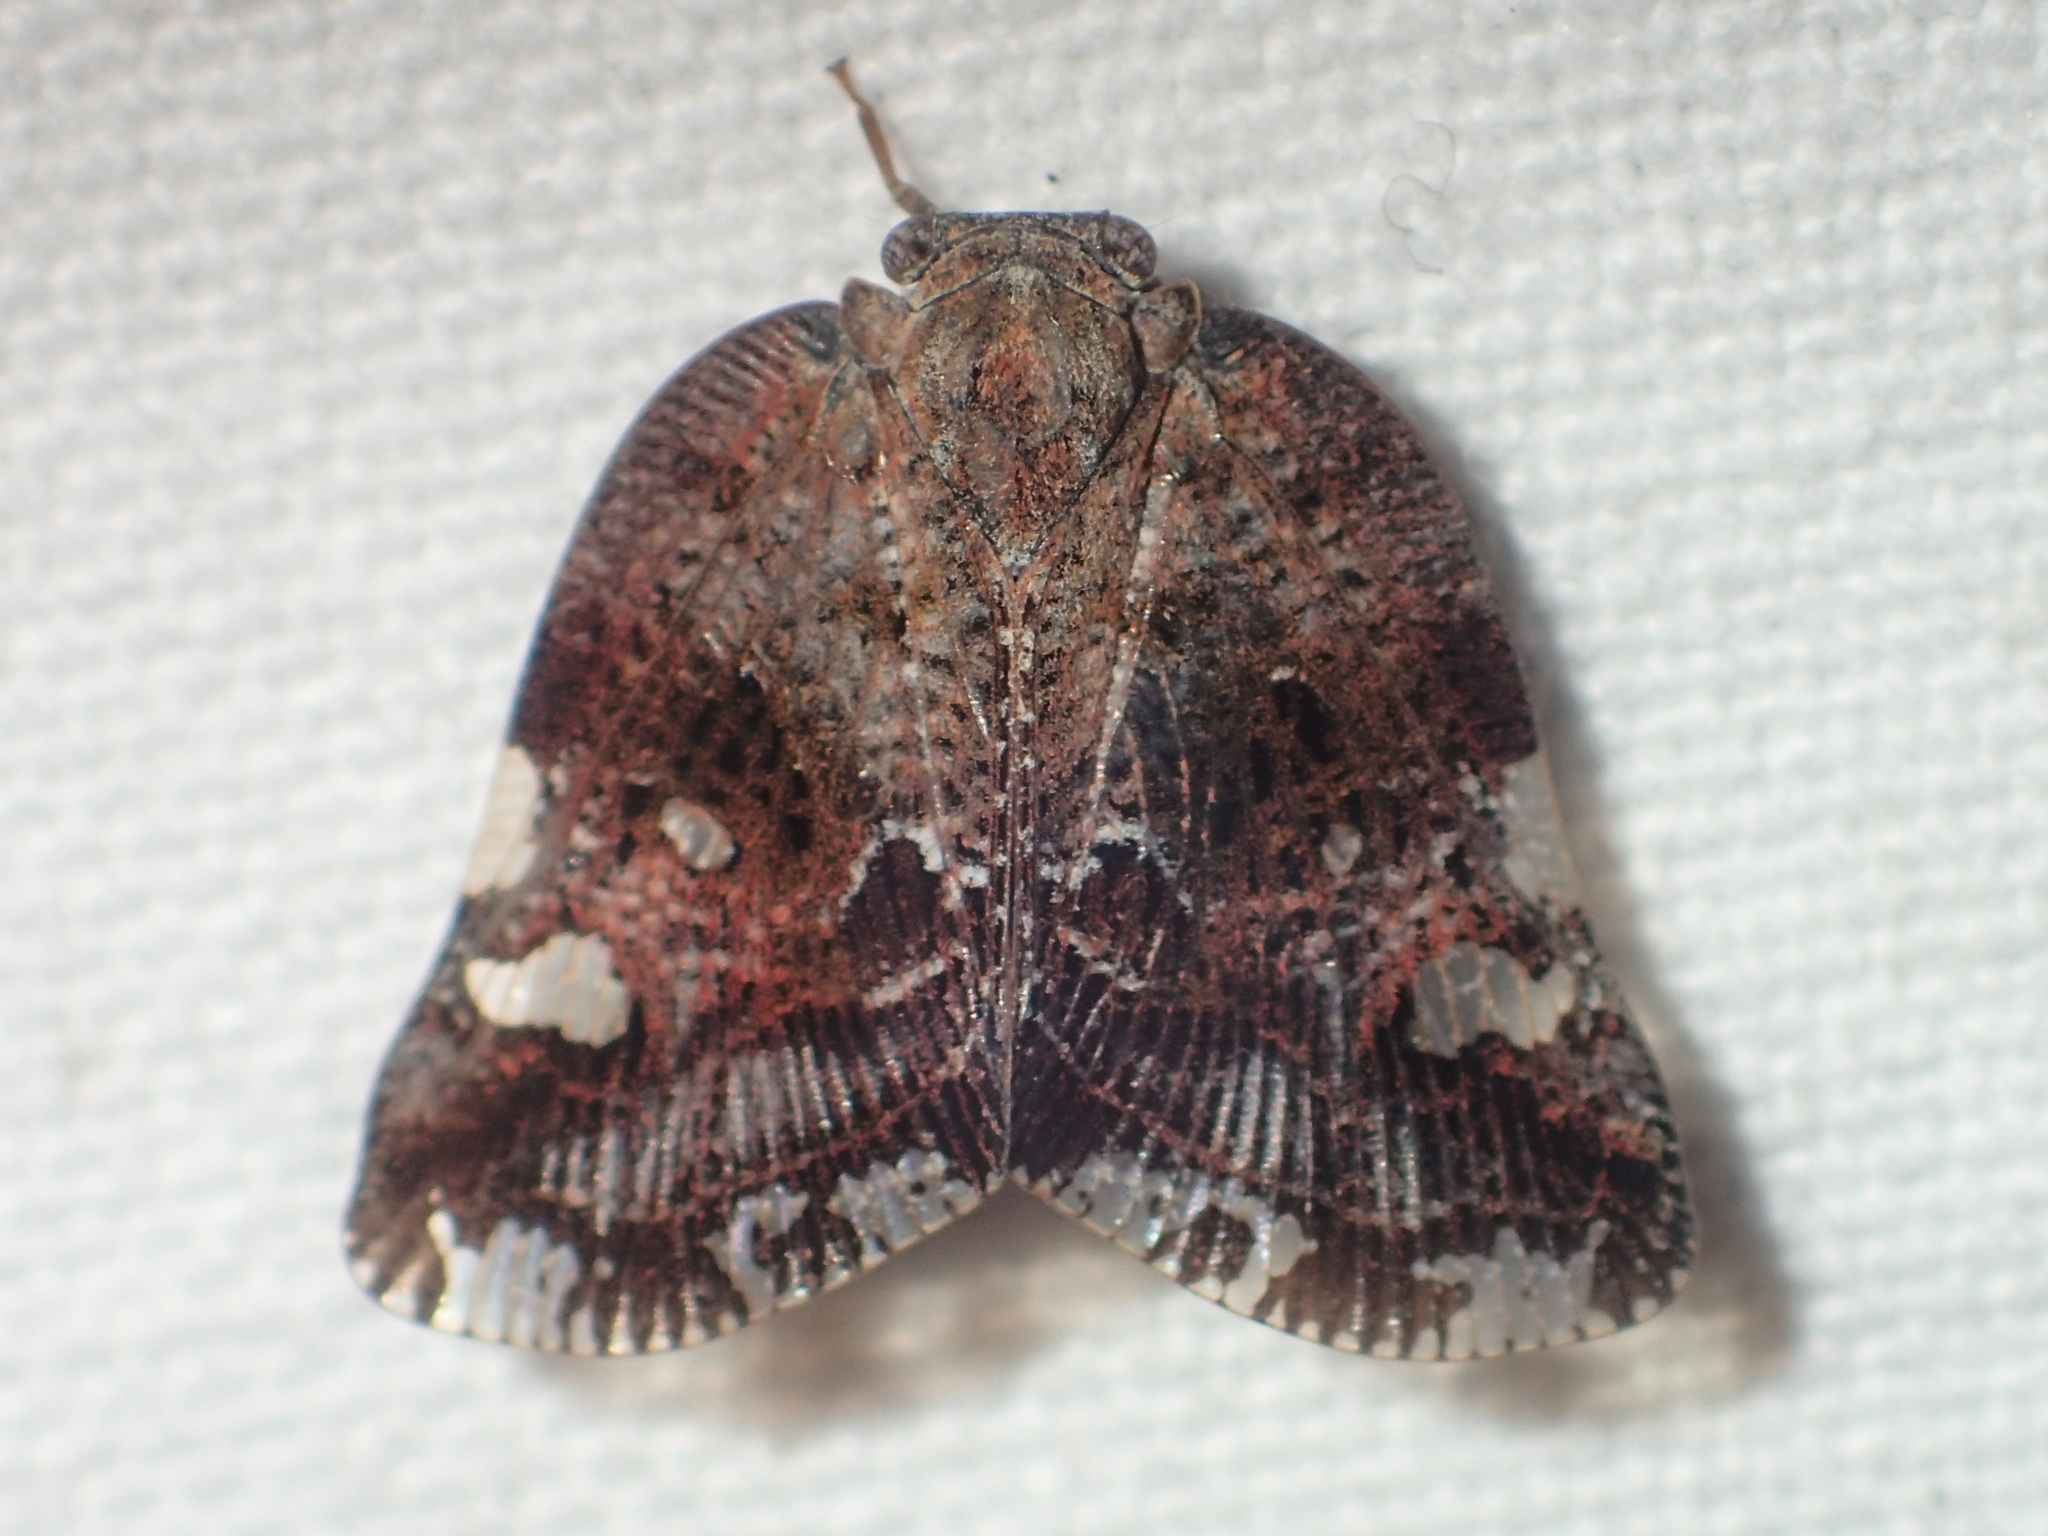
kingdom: Animalia
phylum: Arthropoda
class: Insecta
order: Hemiptera
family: Ricaniidae
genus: Ricania
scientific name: Ricania speculum
